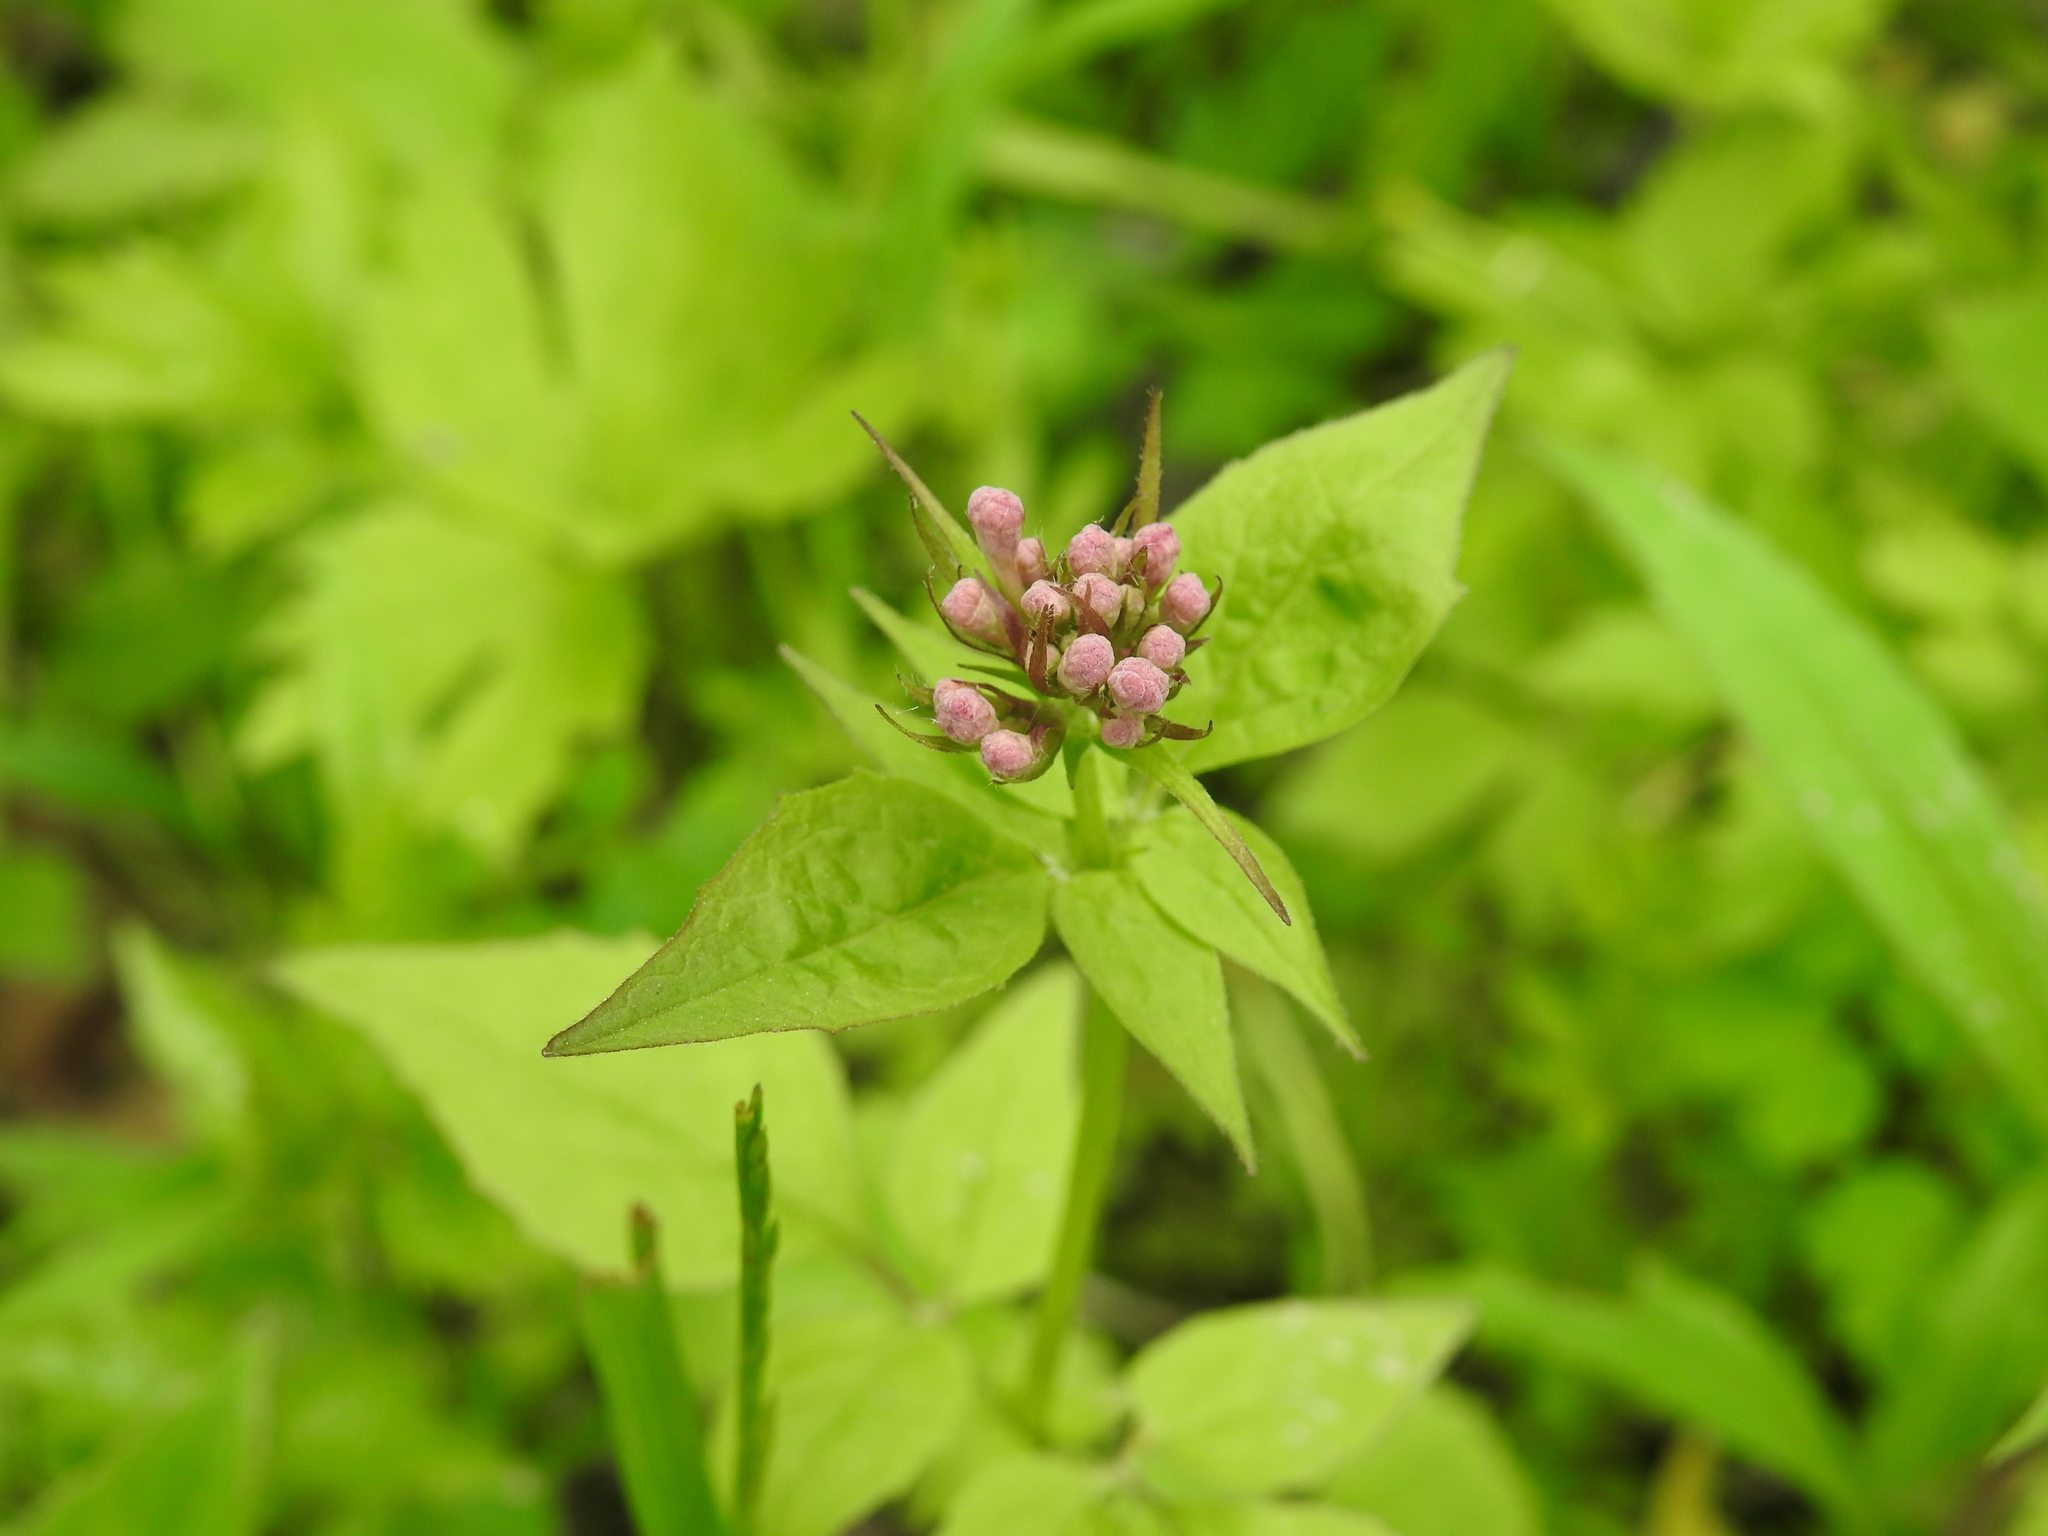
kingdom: Plantae
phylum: Tracheophyta
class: Magnoliopsida
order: Dipsacales
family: Caprifoliaceae
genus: Valeriana
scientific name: Valeriana pauciflora
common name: Long-tube valeriana
